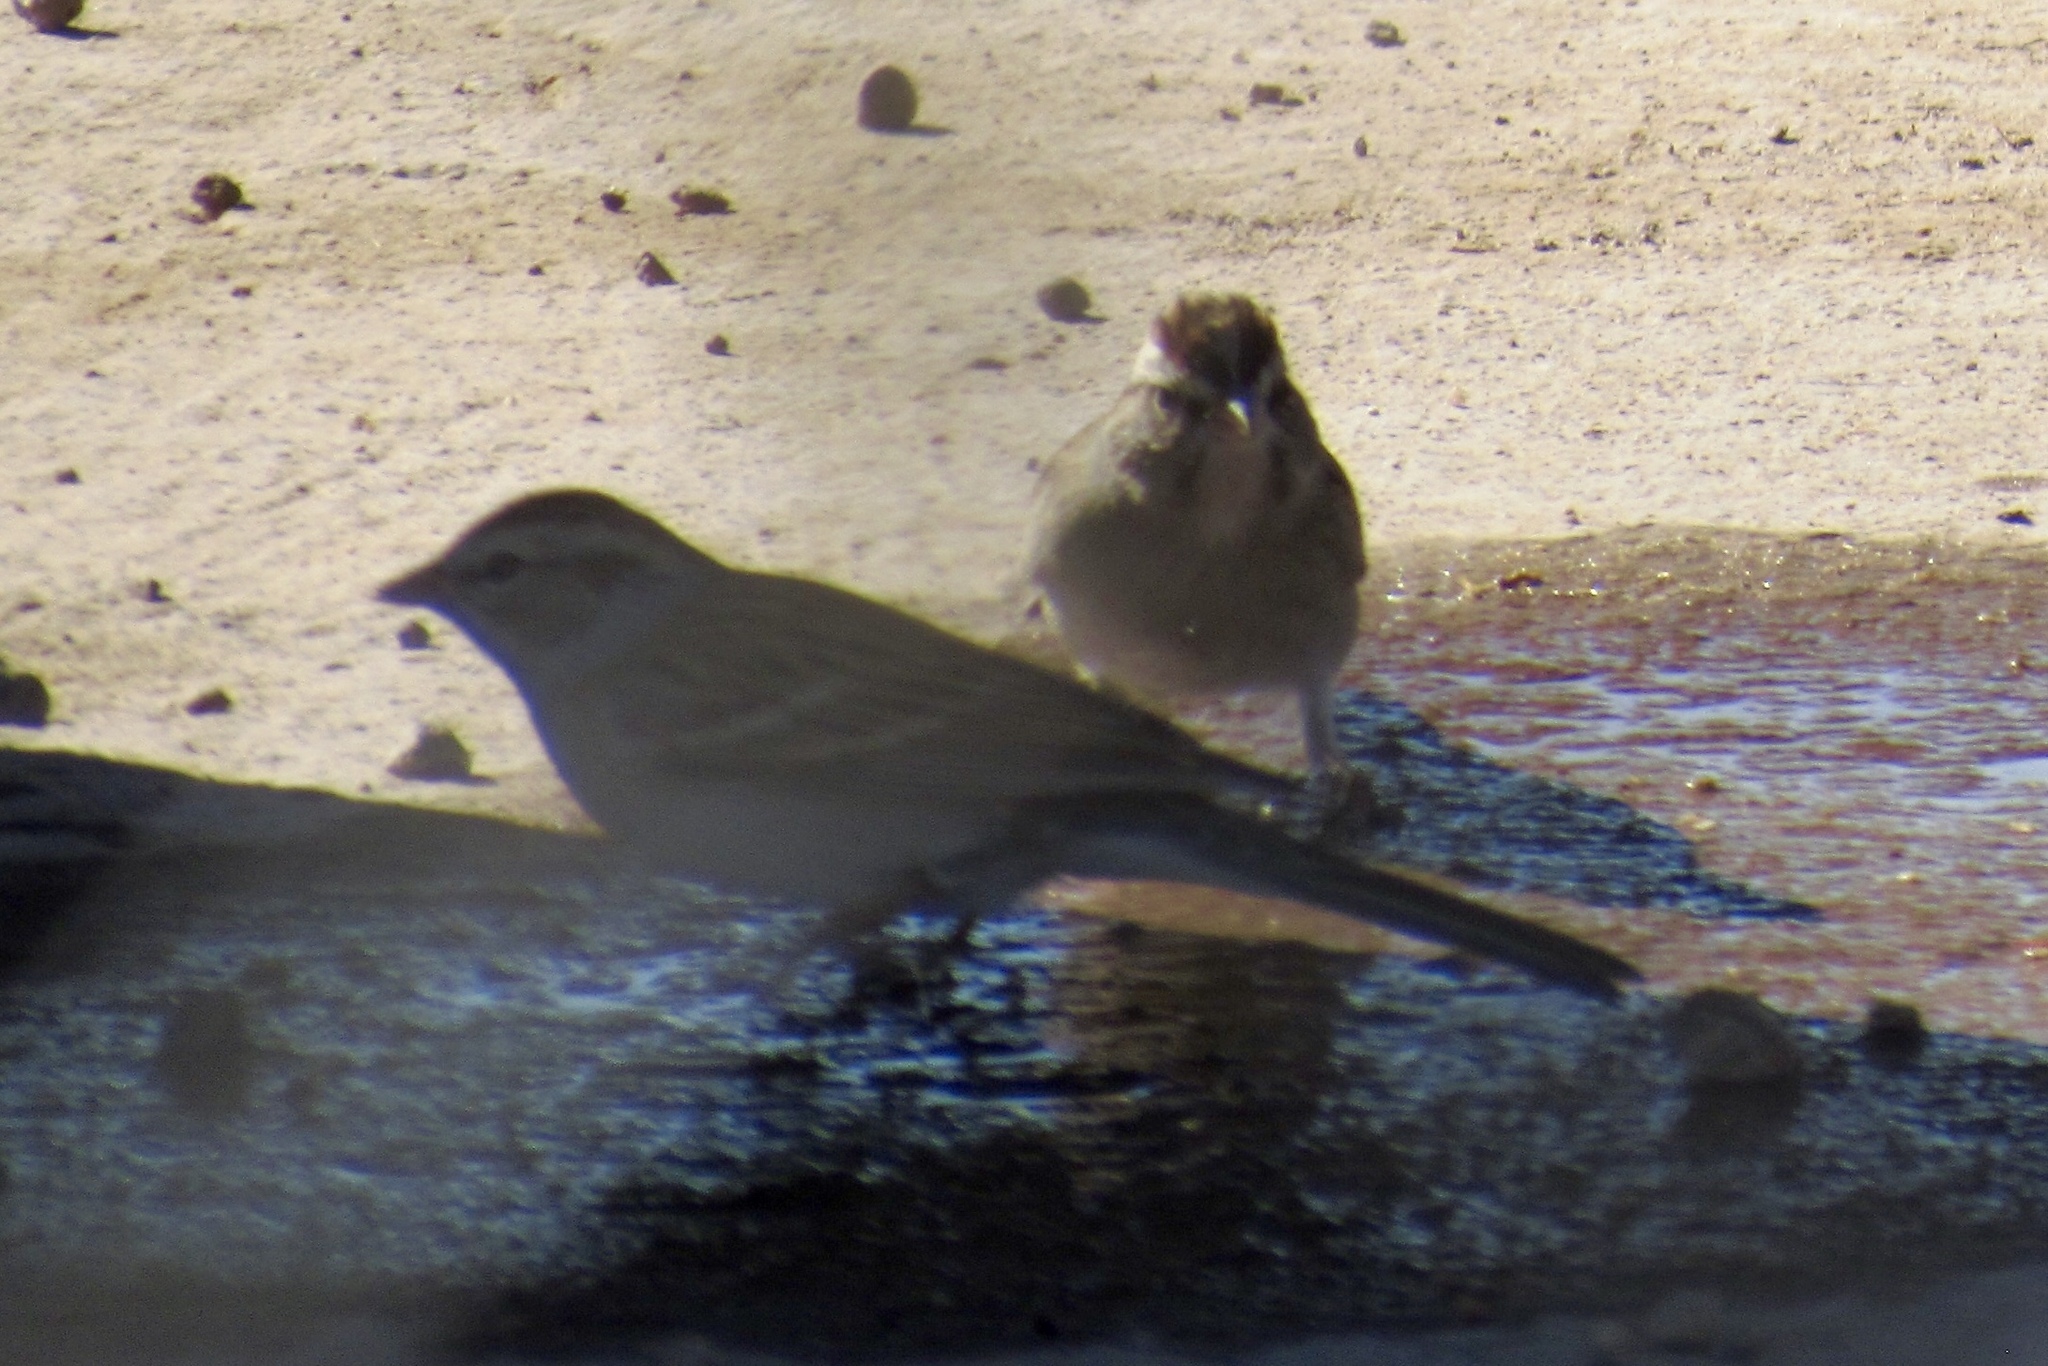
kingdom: Animalia
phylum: Chordata
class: Aves
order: Passeriformes
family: Passerellidae
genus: Spizella
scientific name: Spizella passerina
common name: Chipping sparrow
